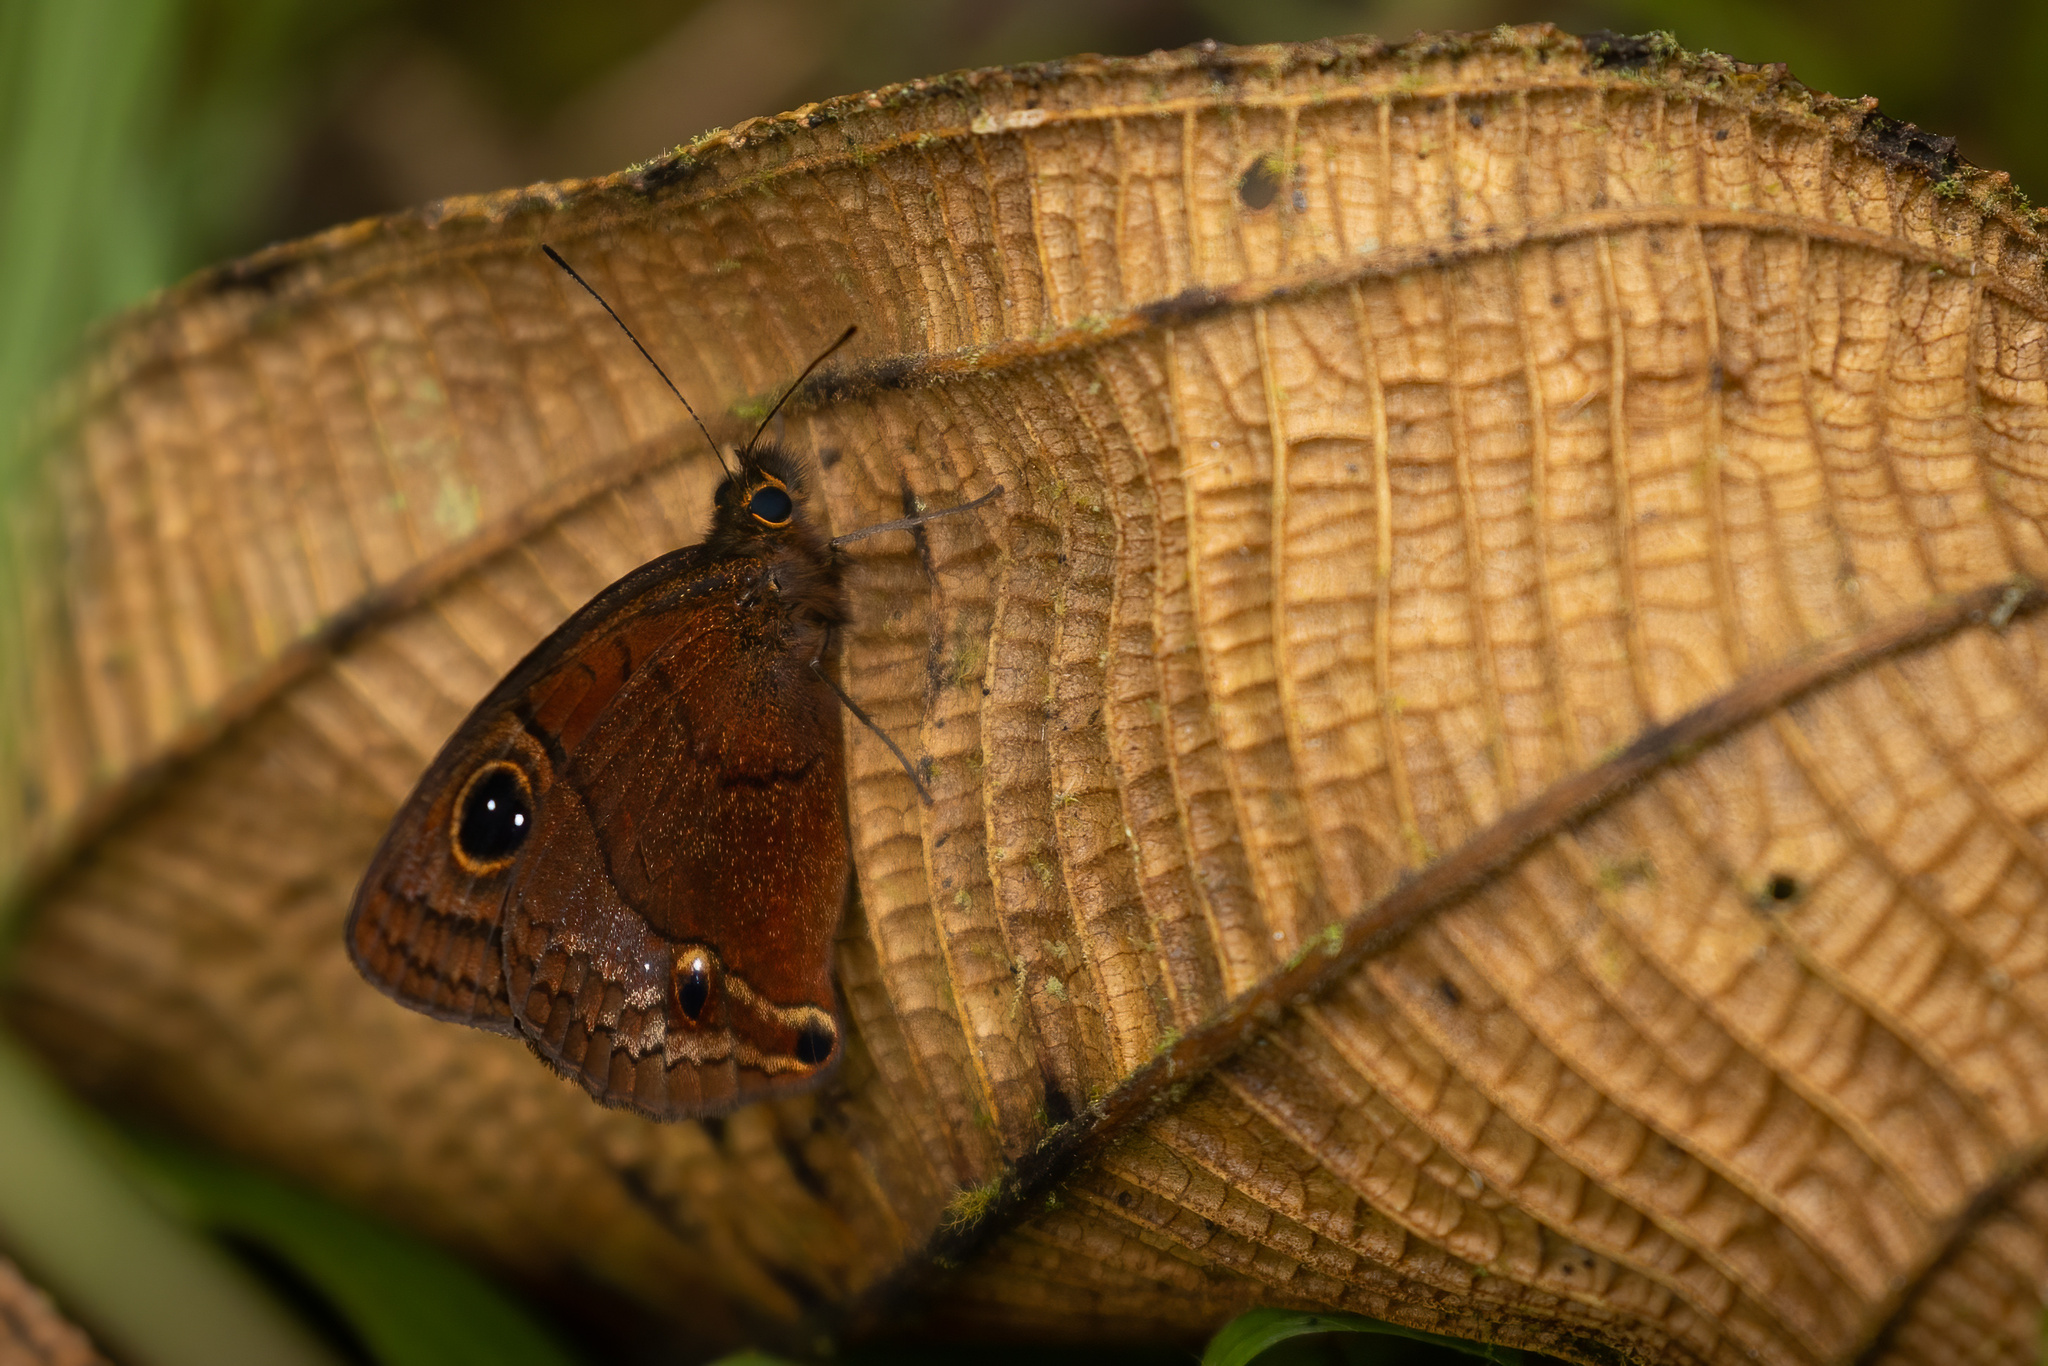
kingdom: Animalia
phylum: Arthropoda
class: Insecta
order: Lepidoptera
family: Nymphalidae
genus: Calisto
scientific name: Calisto nubila
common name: Puerto rican calisto
